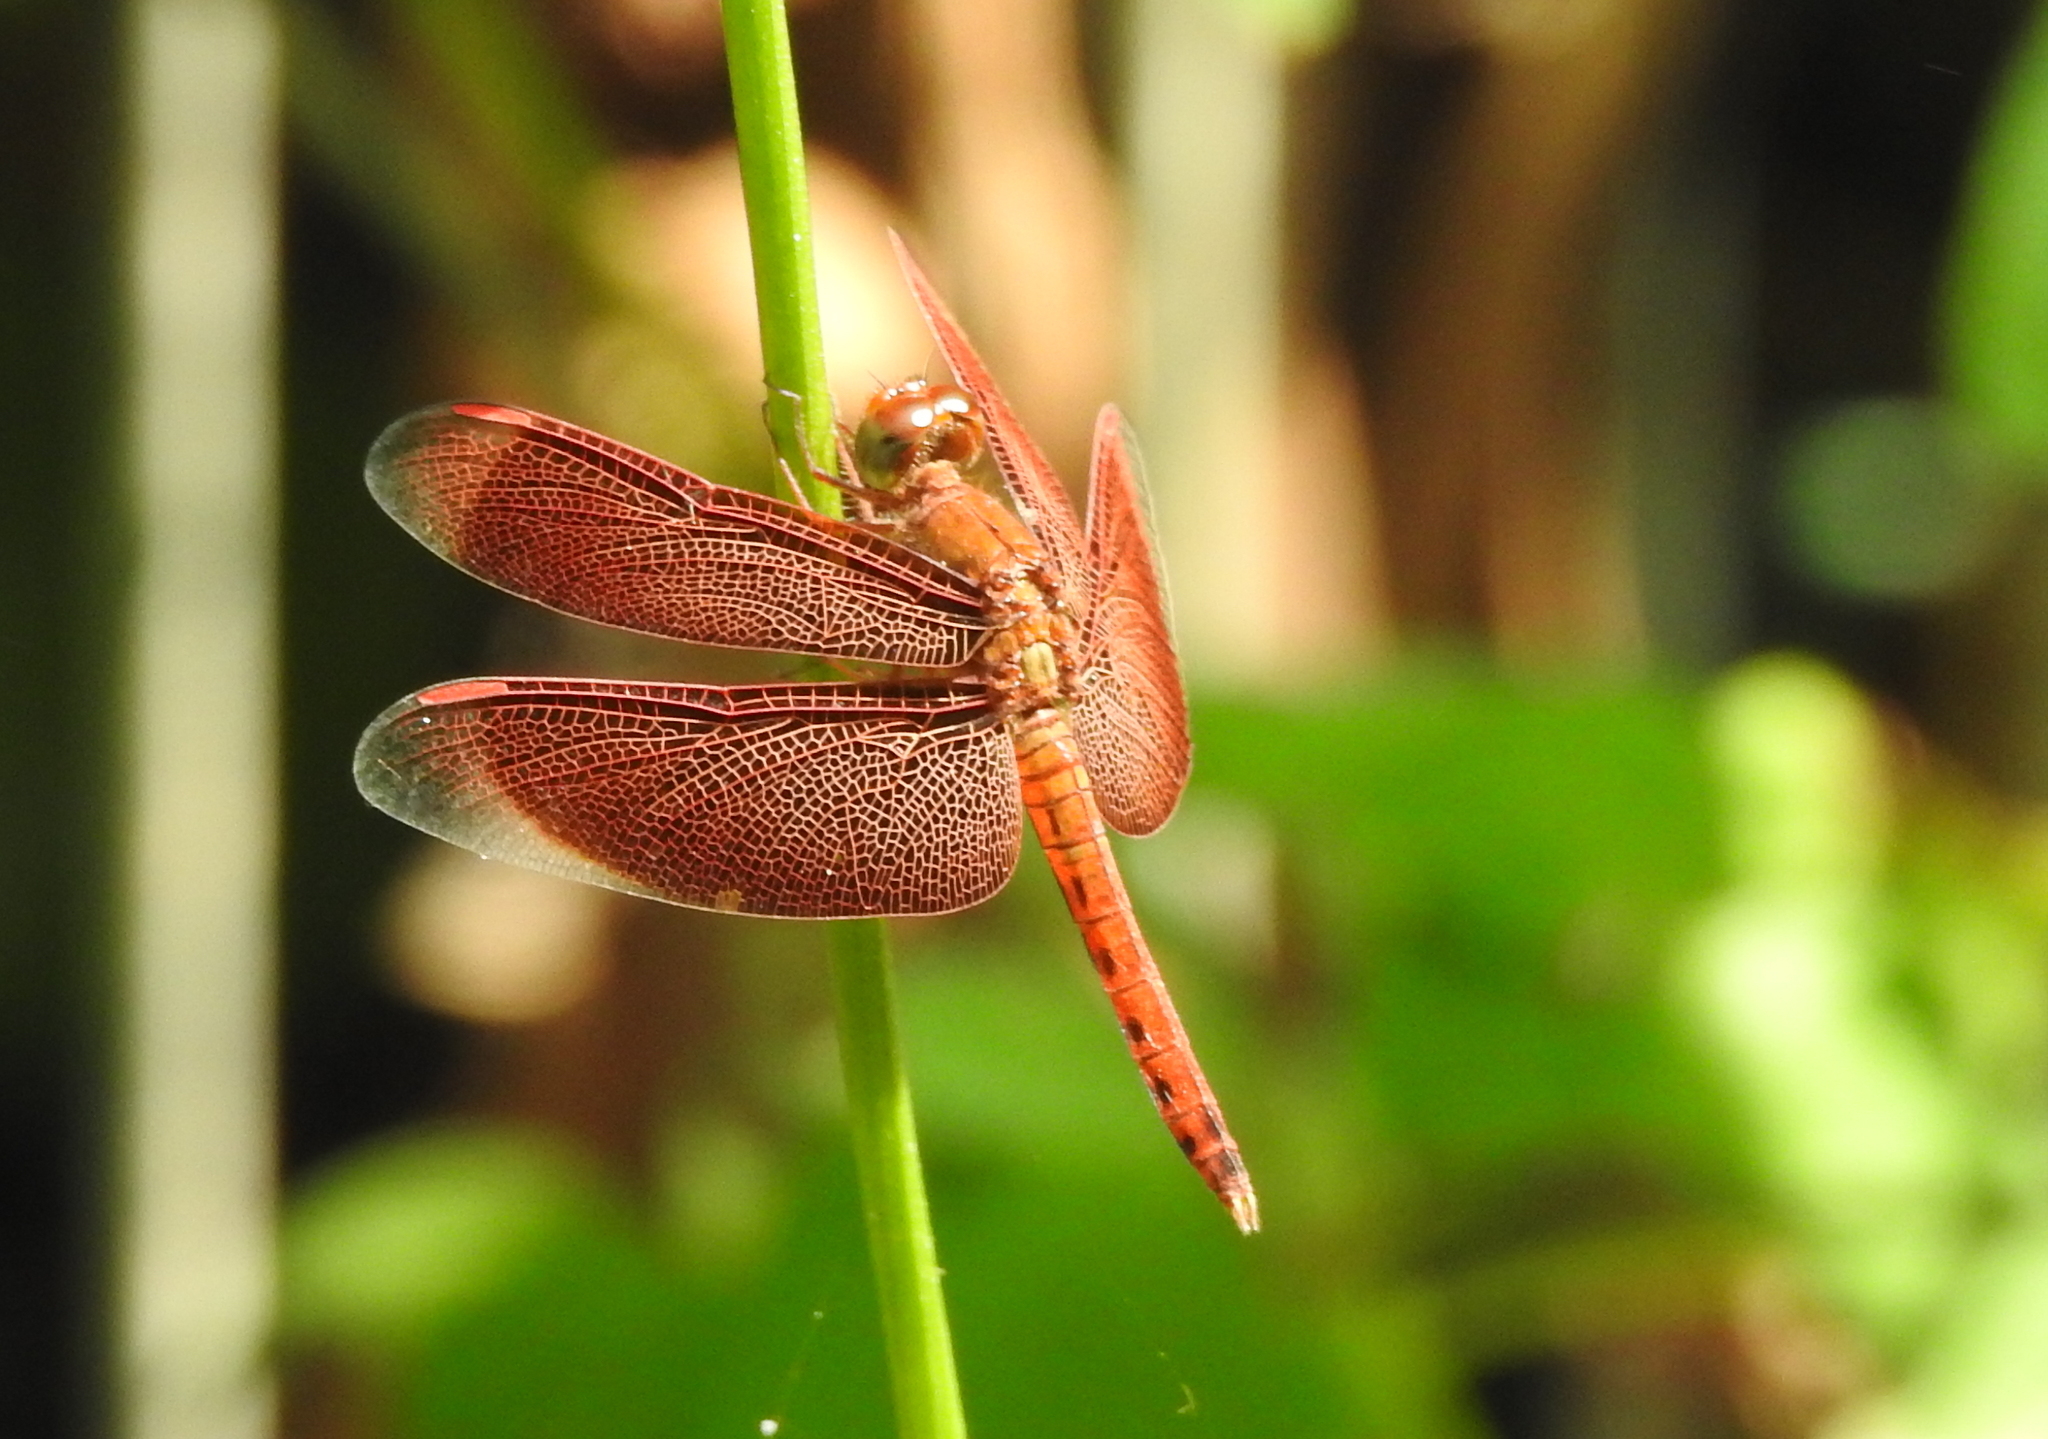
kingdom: Animalia
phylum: Arthropoda
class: Insecta
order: Odonata
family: Libellulidae
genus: Neurothemis
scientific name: Neurothemis fluctuans
